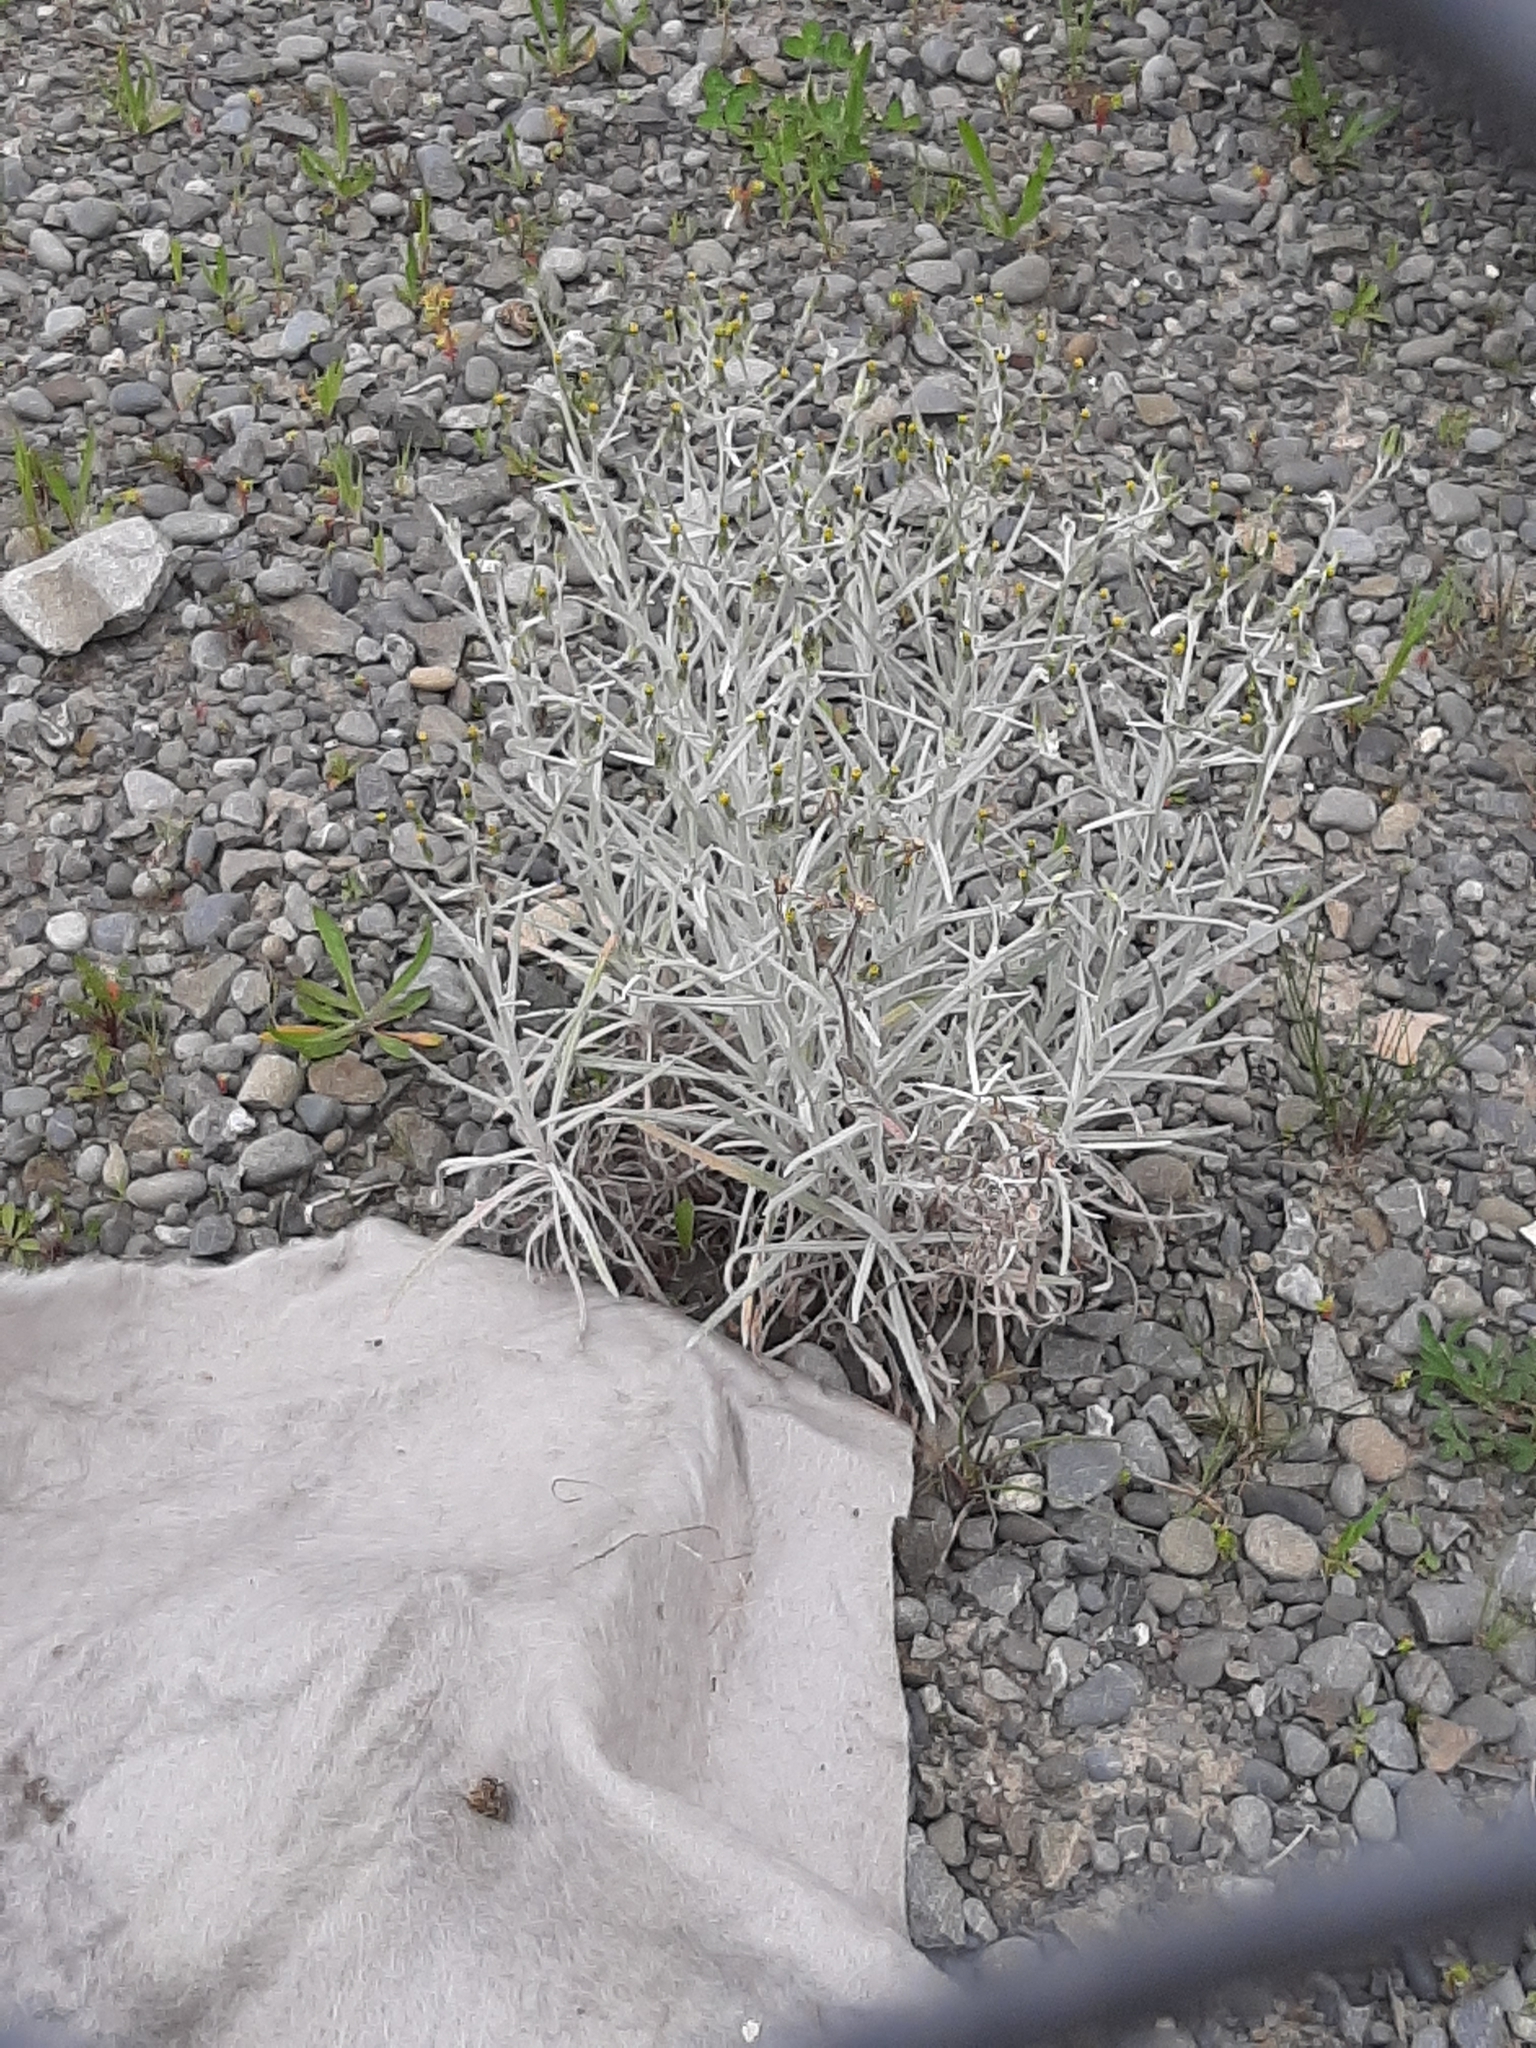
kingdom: Plantae
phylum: Tracheophyta
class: Magnoliopsida
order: Asterales
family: Asteraceae
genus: Senecio
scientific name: Senecio quadridentatus
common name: Cotton fireweed
